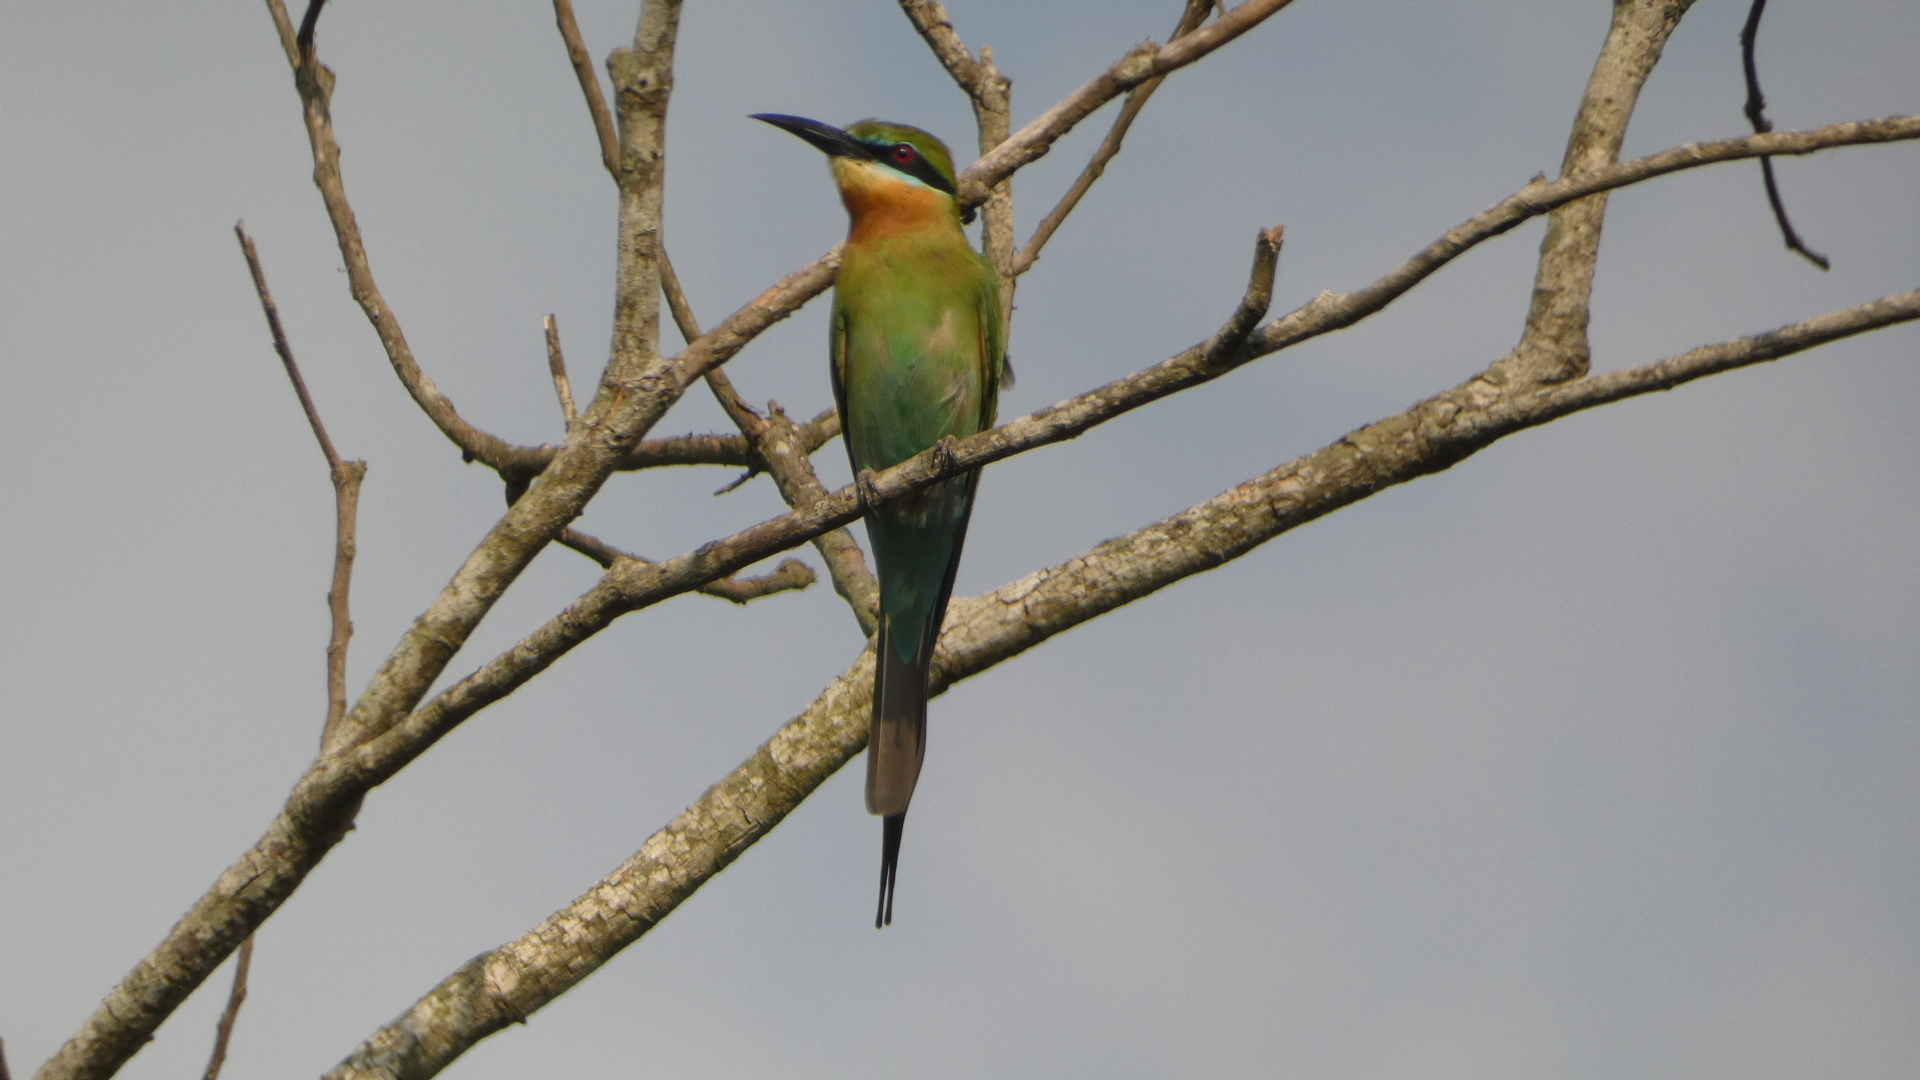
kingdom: Animalia
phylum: Chordata
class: Aves
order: Coraciiformes
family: Meropidae
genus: Merops
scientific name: Merops philippinus
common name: Blue-tailed bee-eater
